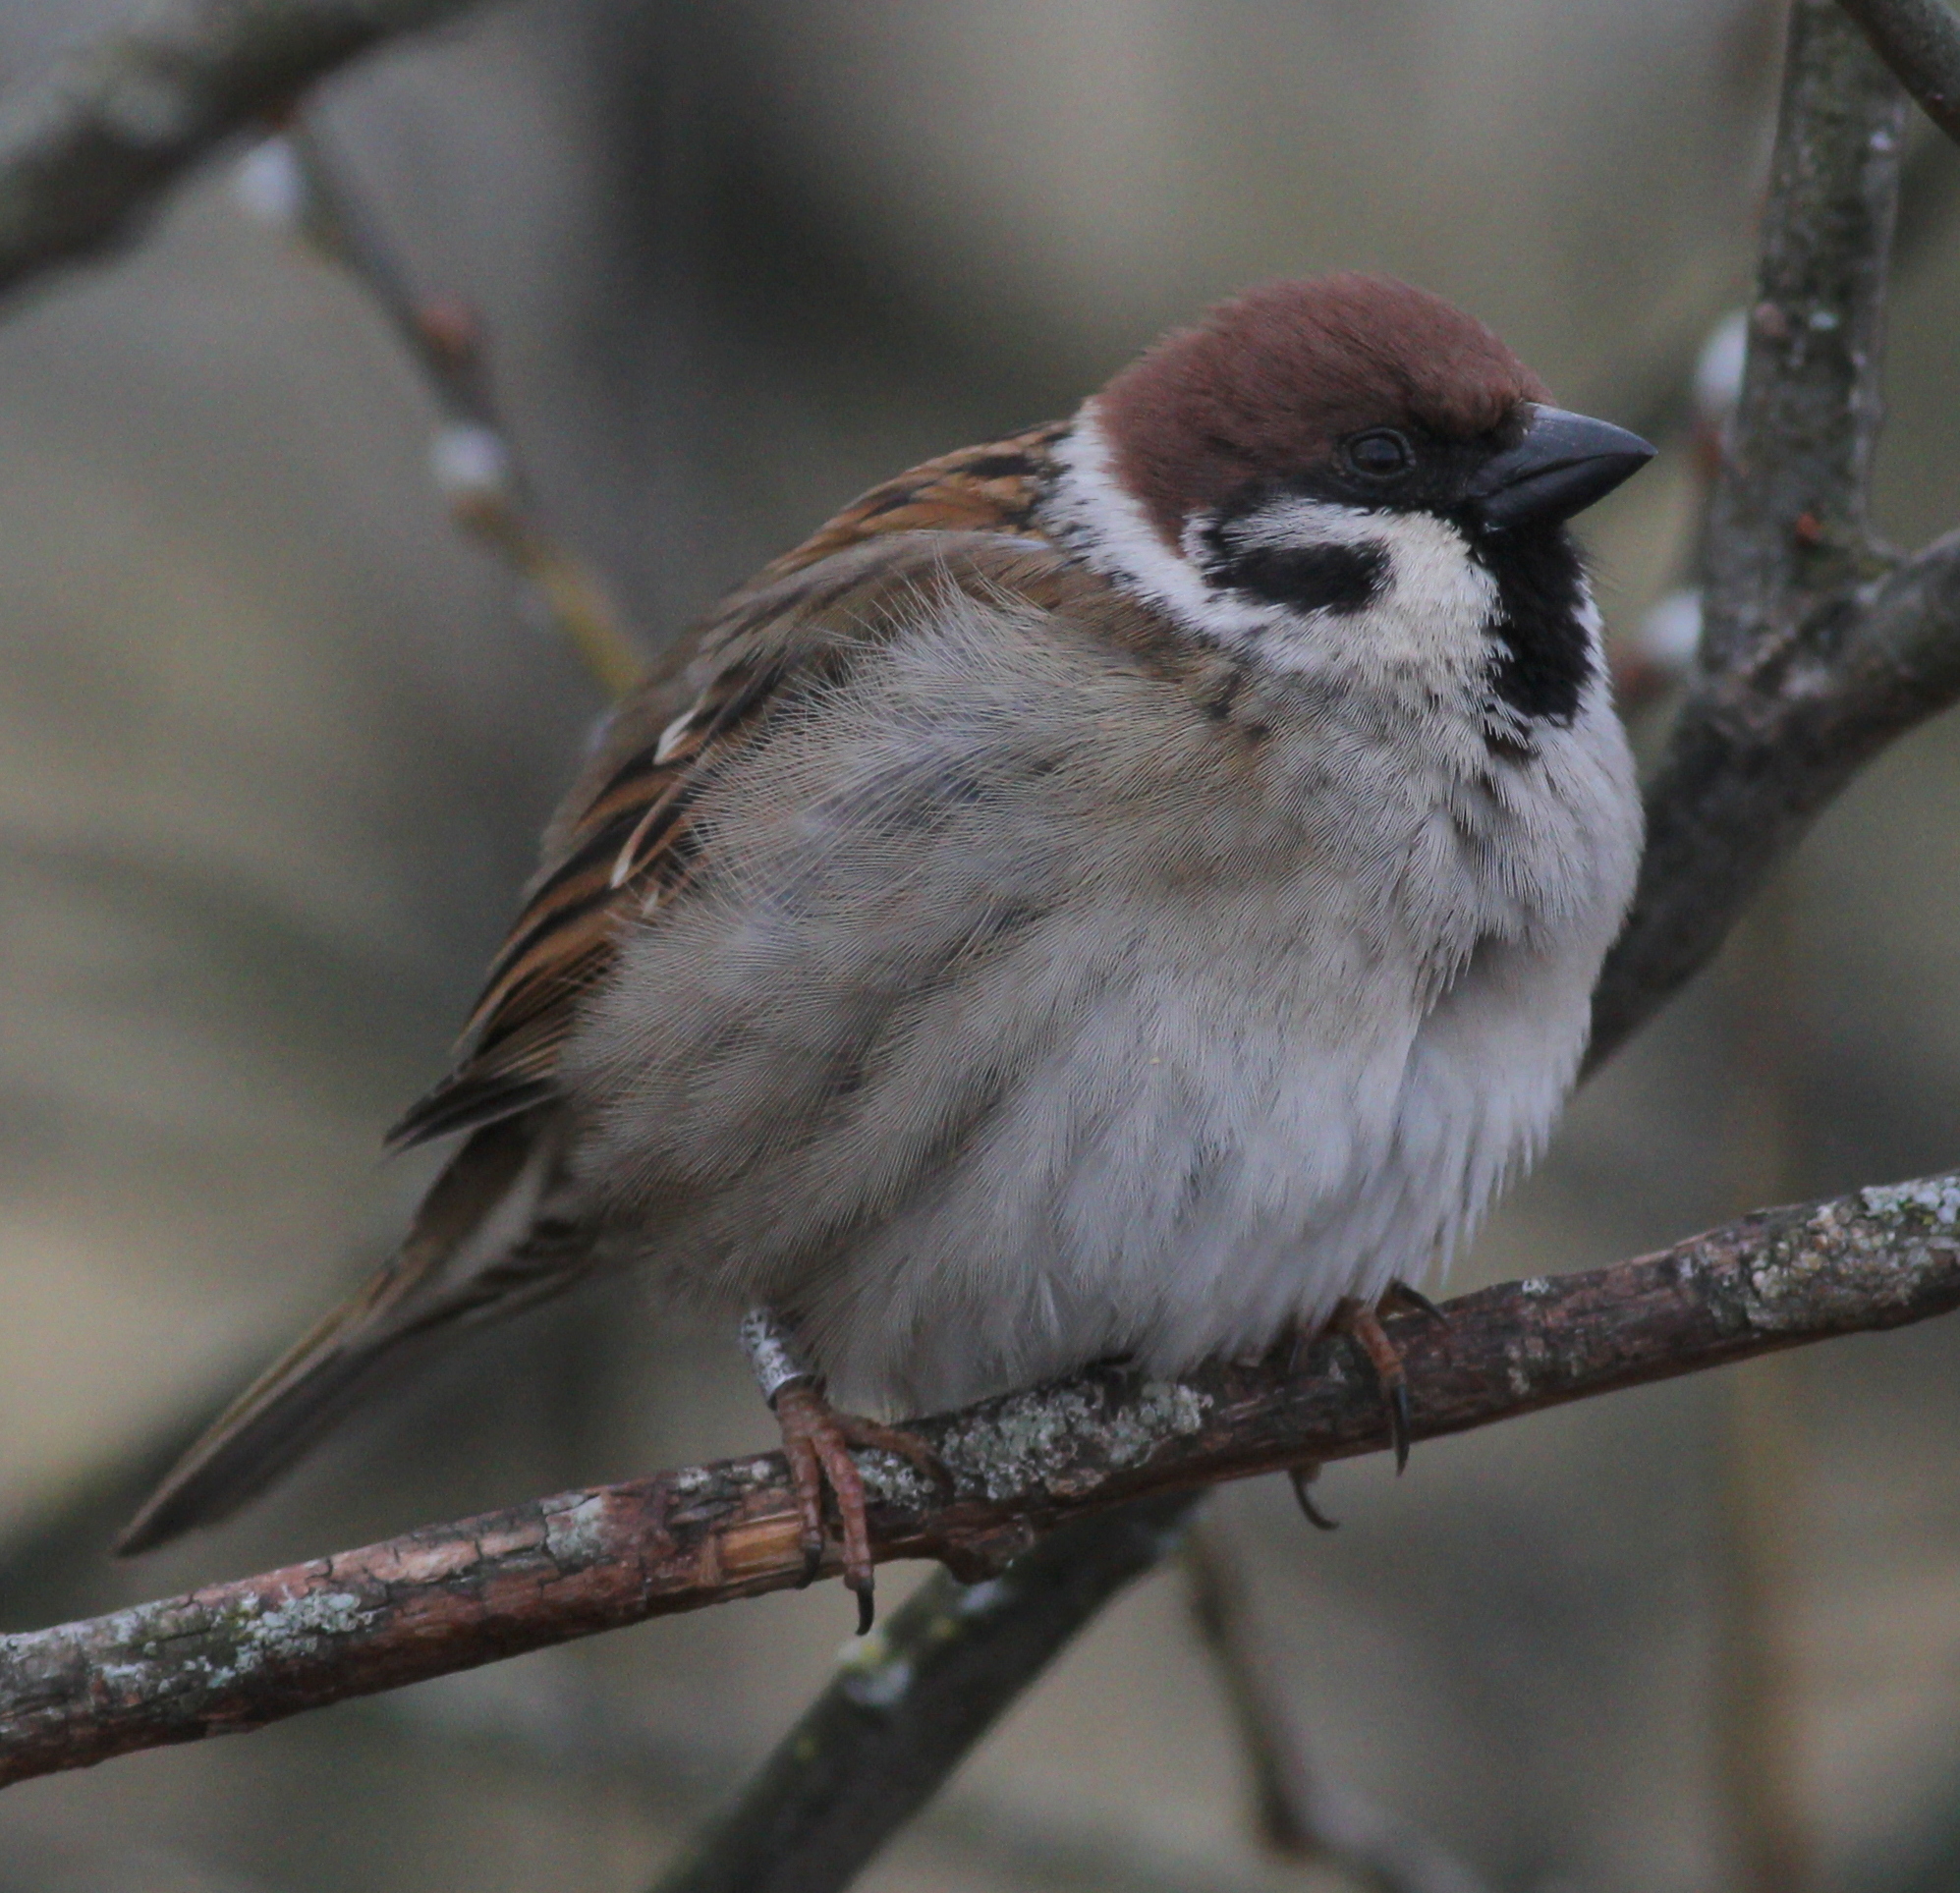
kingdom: Animalia
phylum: Chordata
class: Aves
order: Passeriformes
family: Passeridae
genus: Passer
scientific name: Passer montanus
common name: Eurasian tree sparrow
